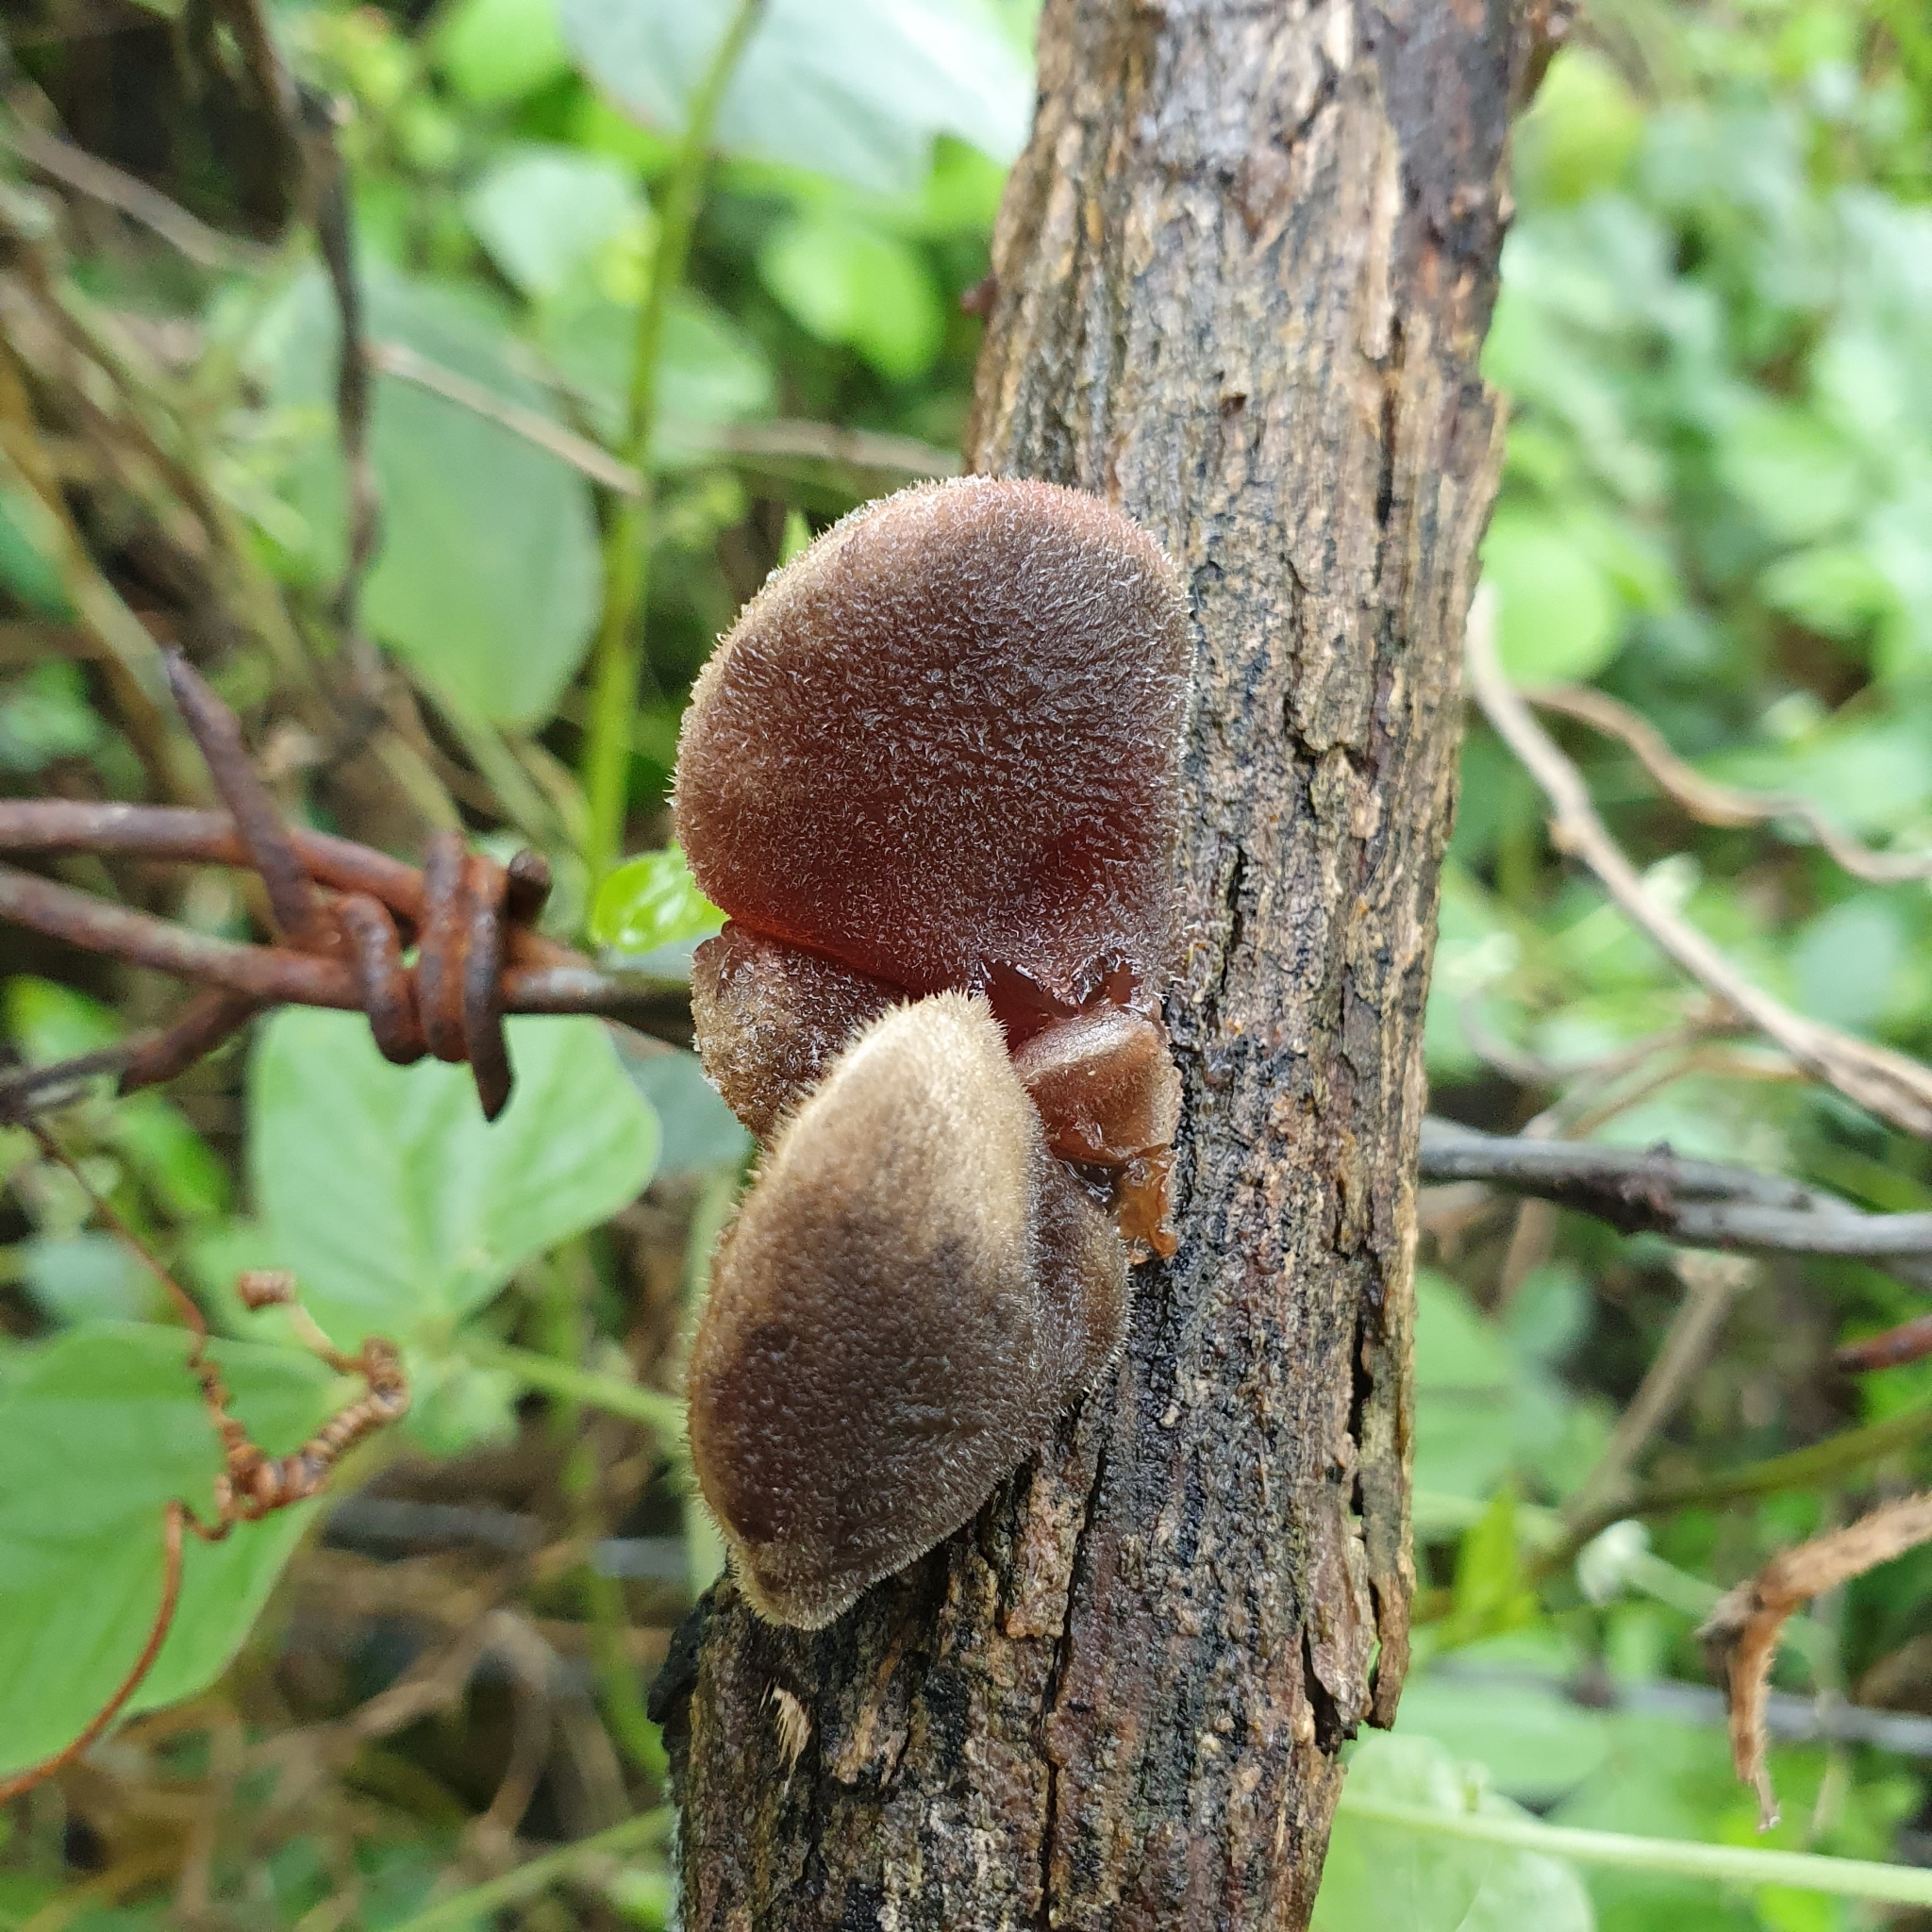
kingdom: Fungi
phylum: Basidiomycota
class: Agaricomycetes
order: Auriculariales
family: Auriculariaceae
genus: Auricularia
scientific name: Auricularia cornea
